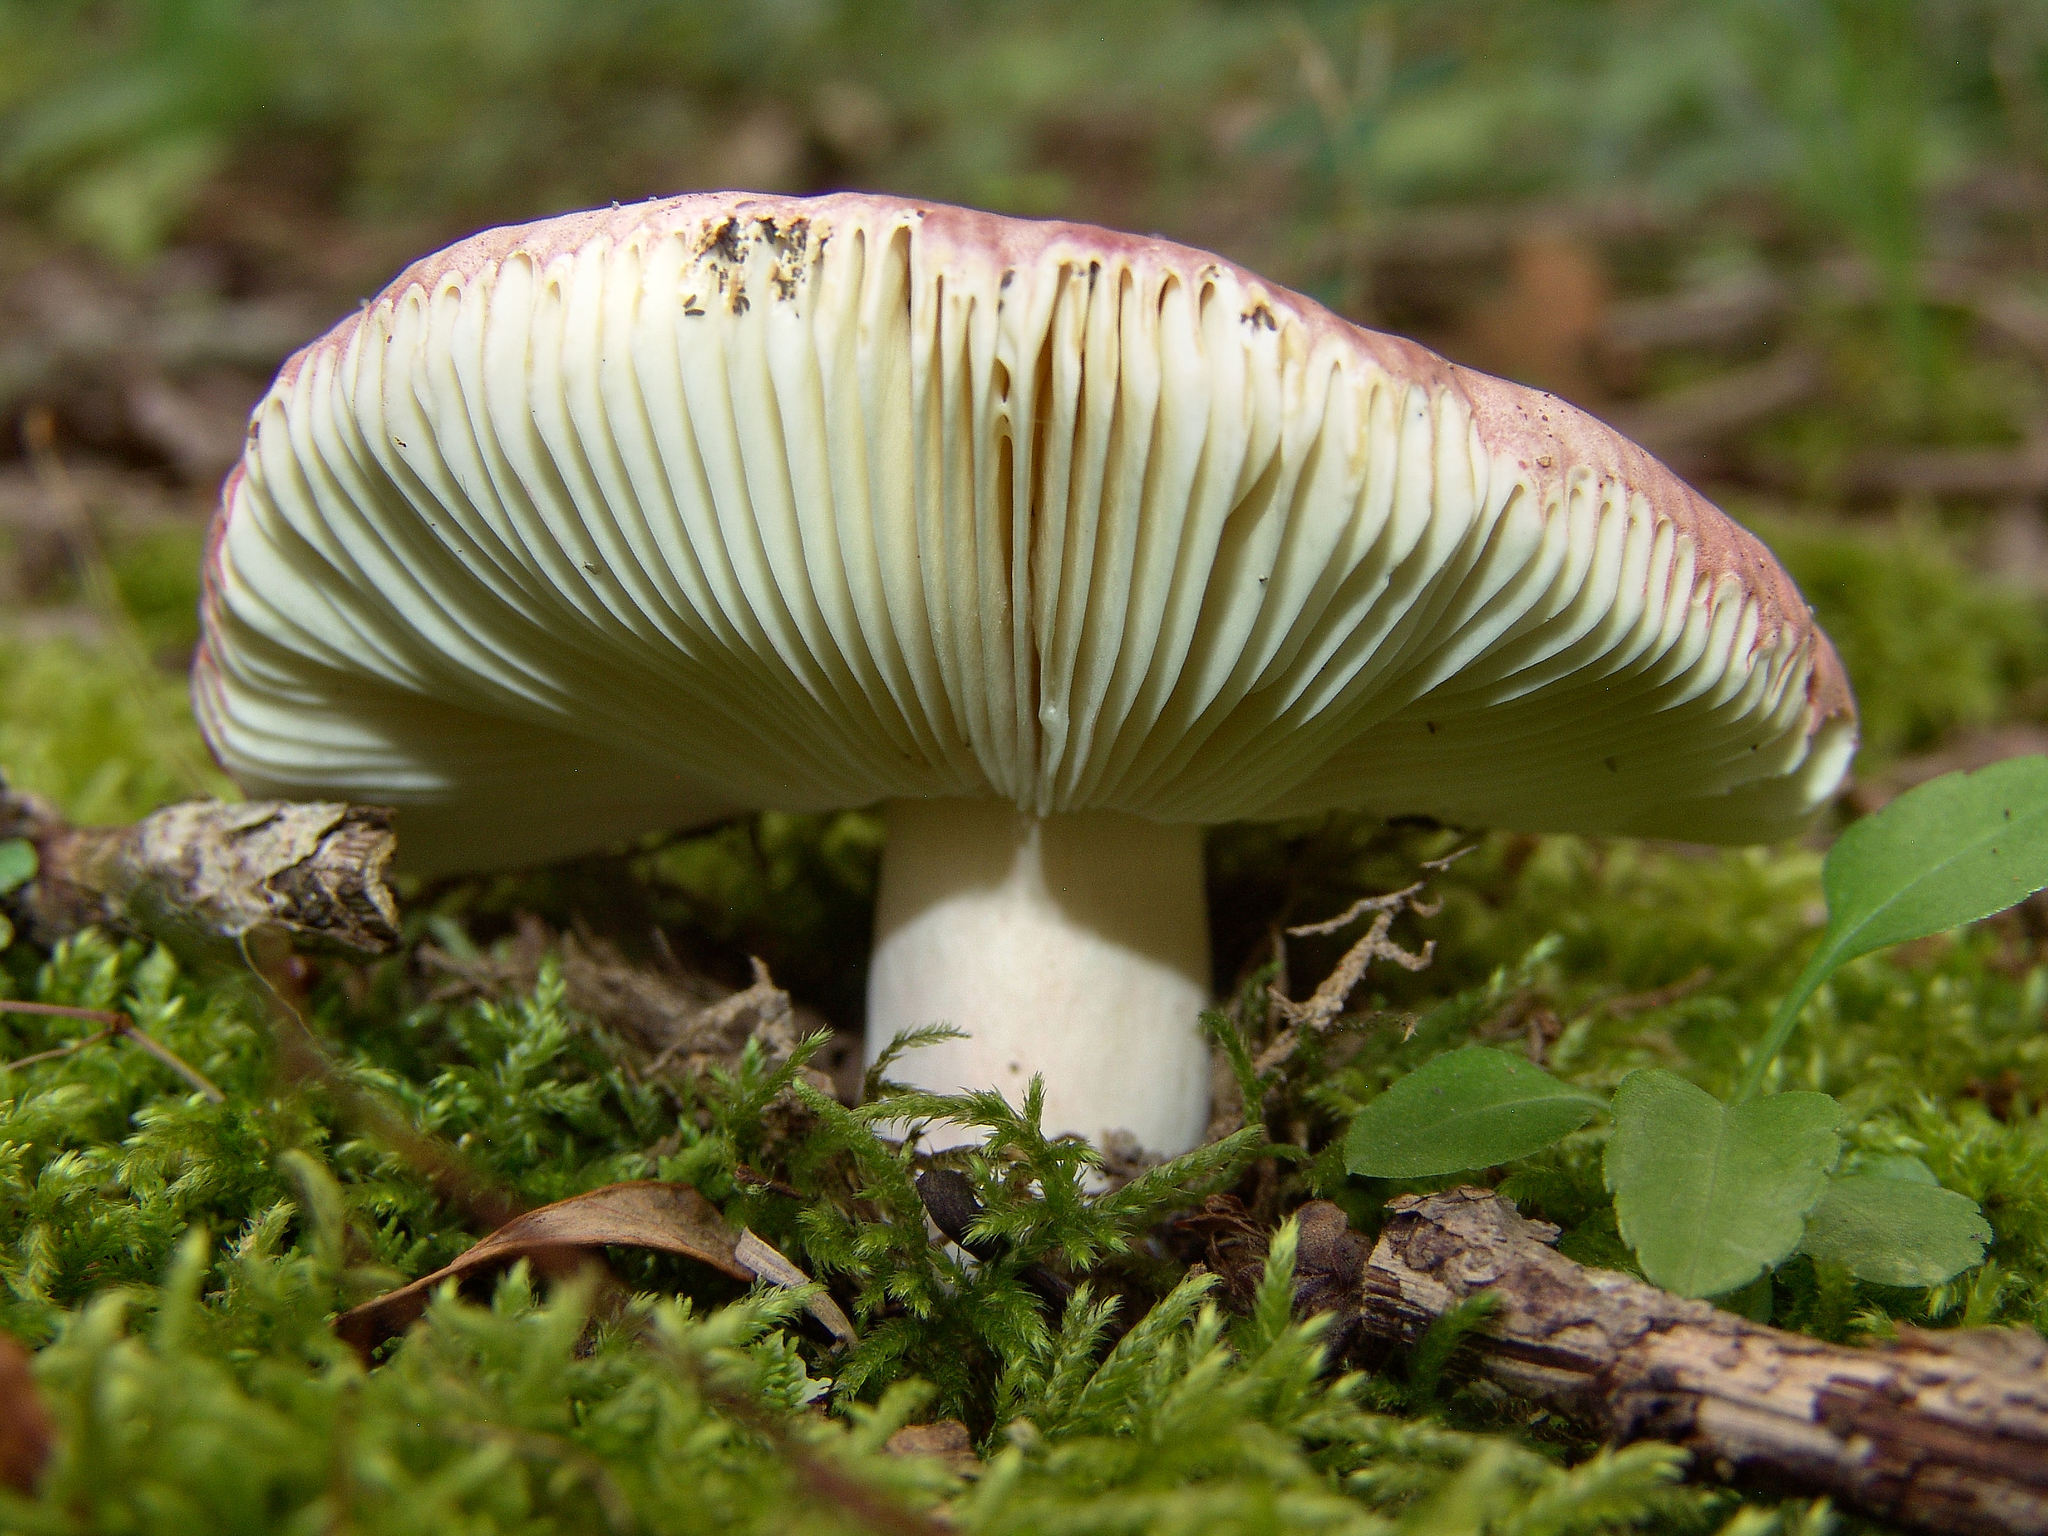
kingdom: Fungi
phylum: Basidiomycota
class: Agaricomycetes
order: Russulales
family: Russulaceae
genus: Russula
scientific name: Russula
